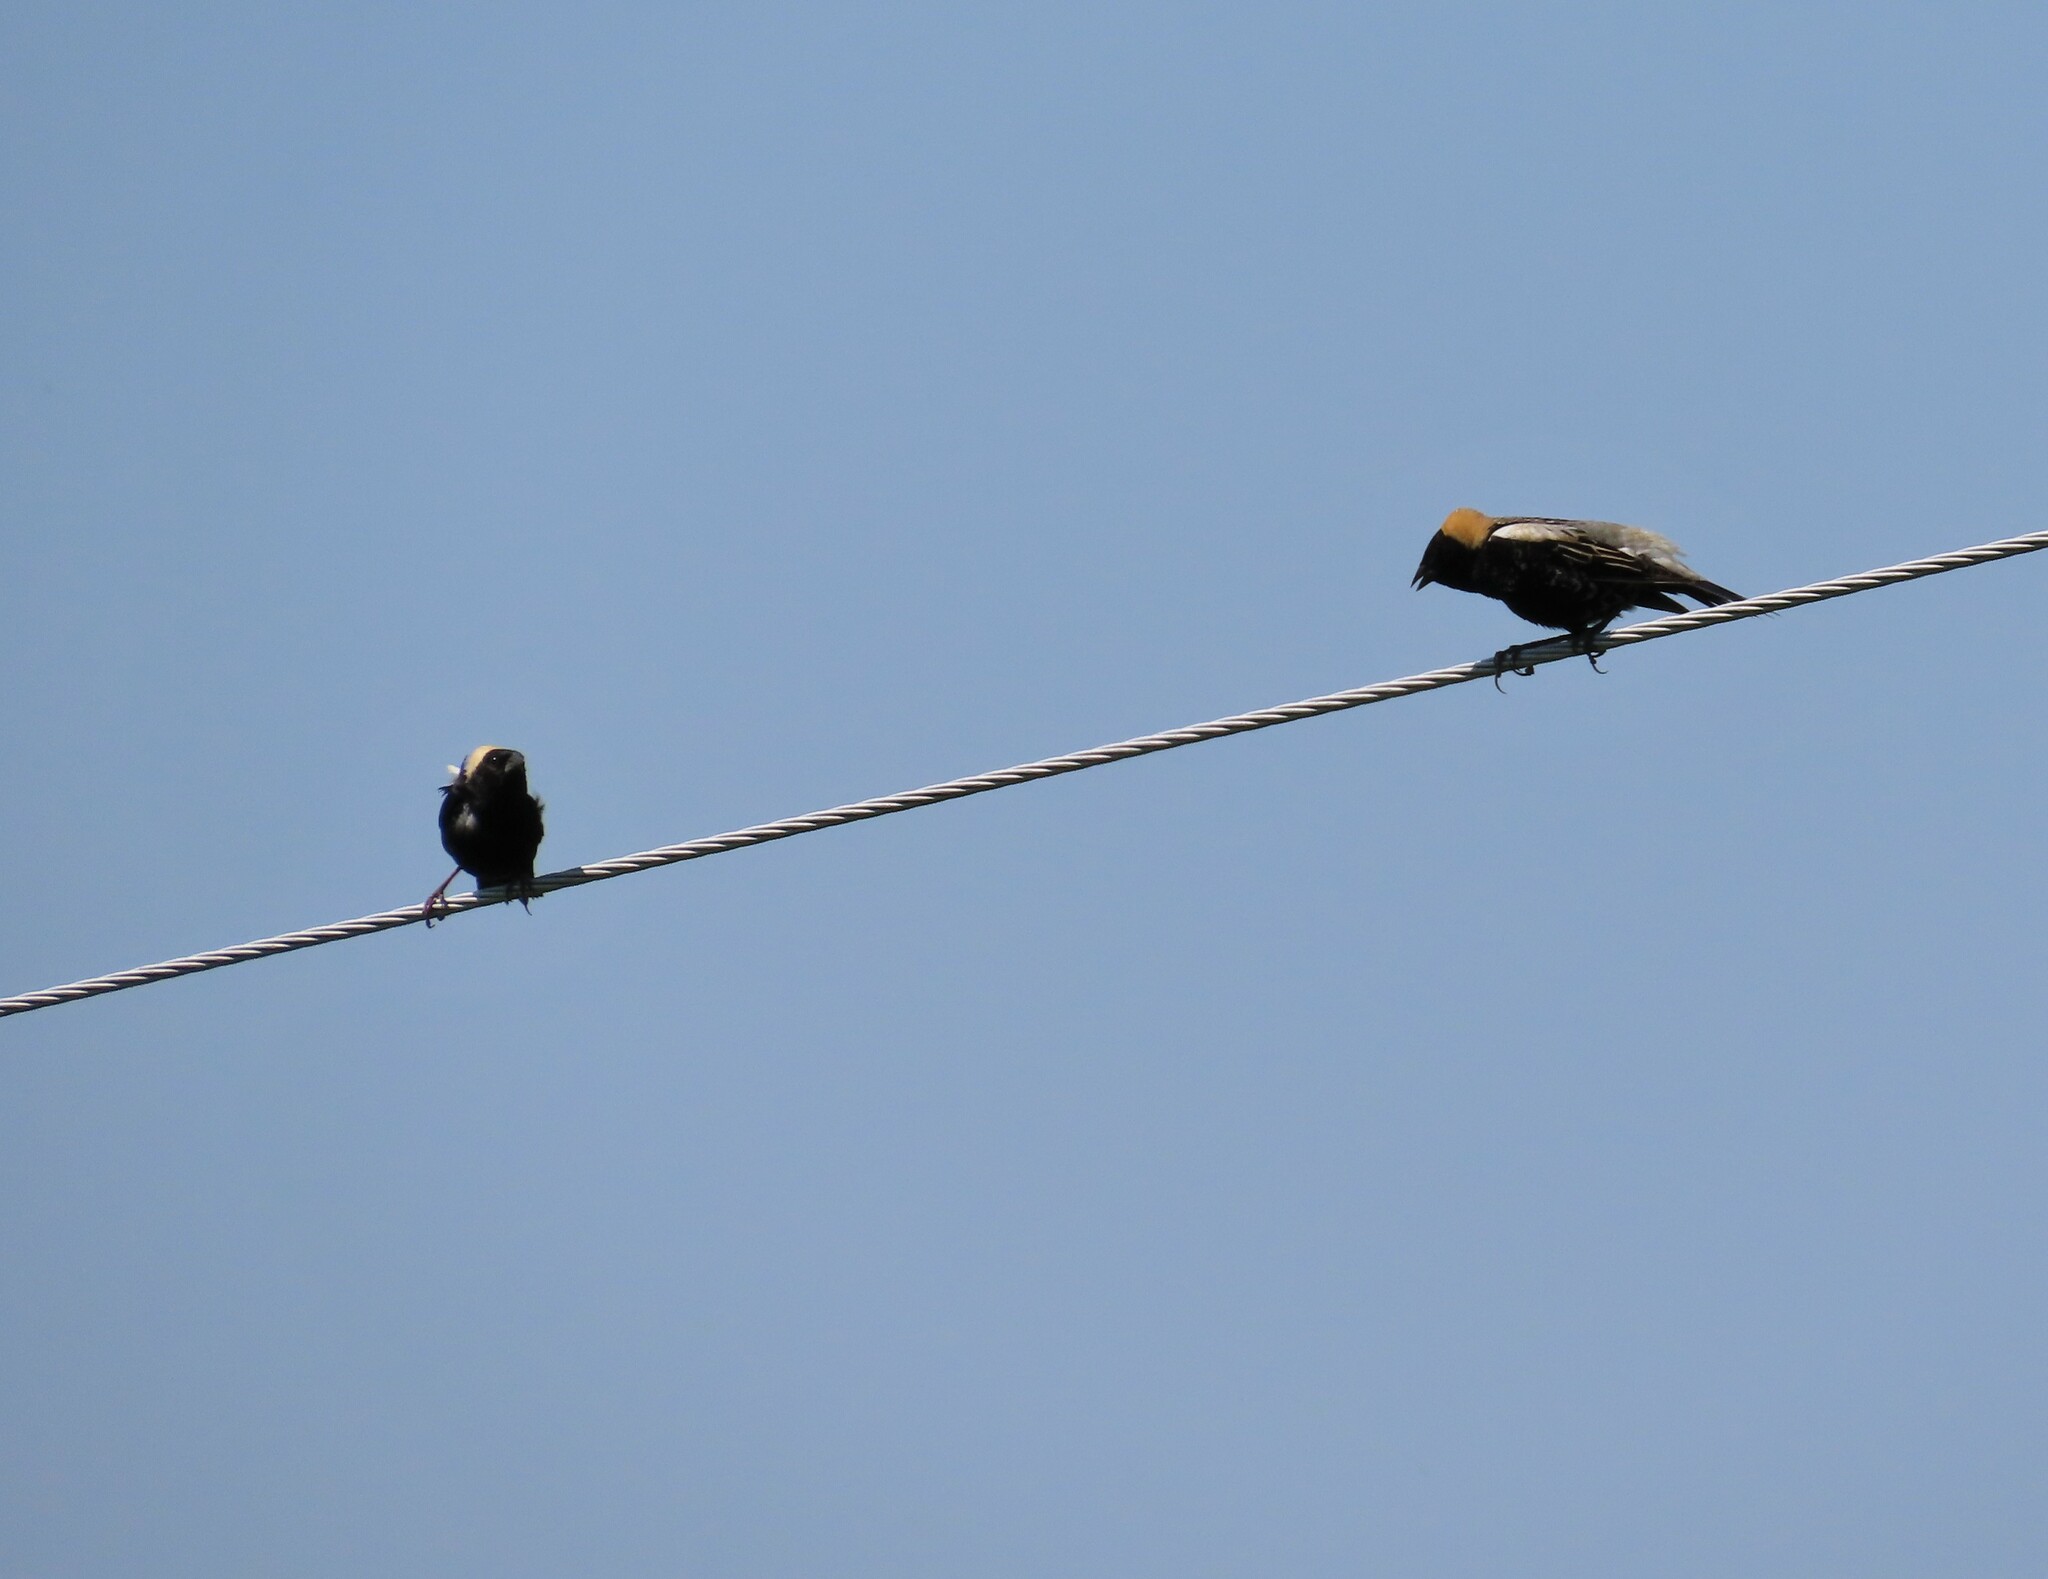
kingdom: Animalia
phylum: Chordata
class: Aves
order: Passeriformes
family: Icteridae
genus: Dolichonyx
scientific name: Dolichonyx oryzivorus
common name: Bobolink
